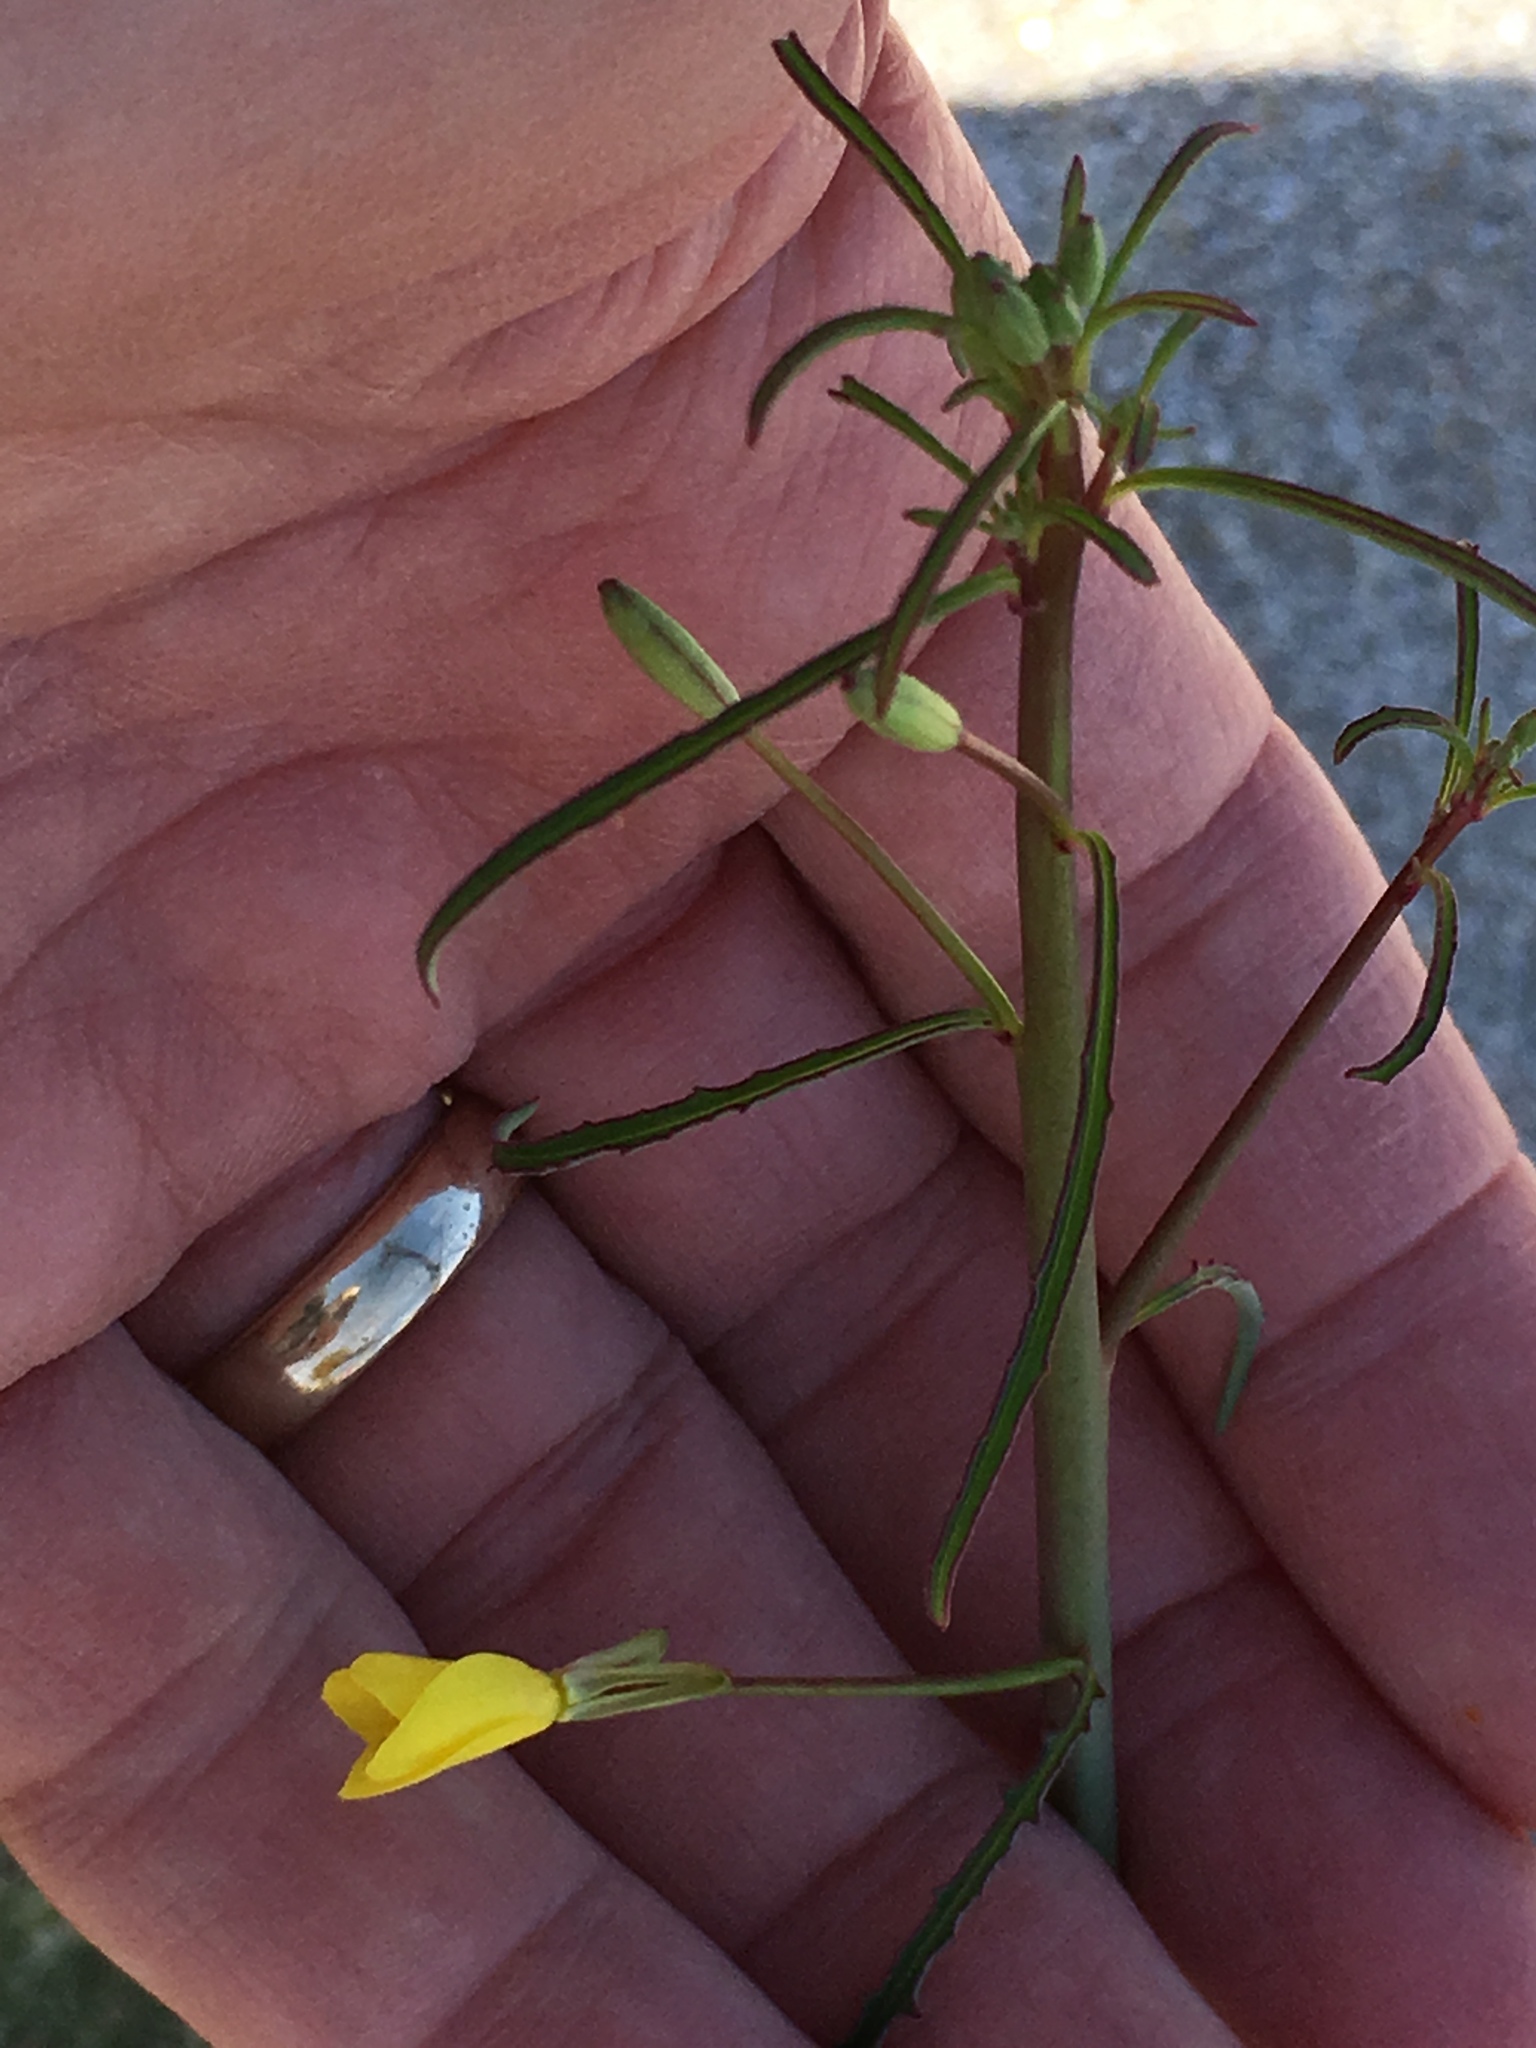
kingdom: Plantae
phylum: Tracheophyta
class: Magnoliopsida
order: Myrtales
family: Onagraceae
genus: Eulobus
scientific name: Eulobus californicus
